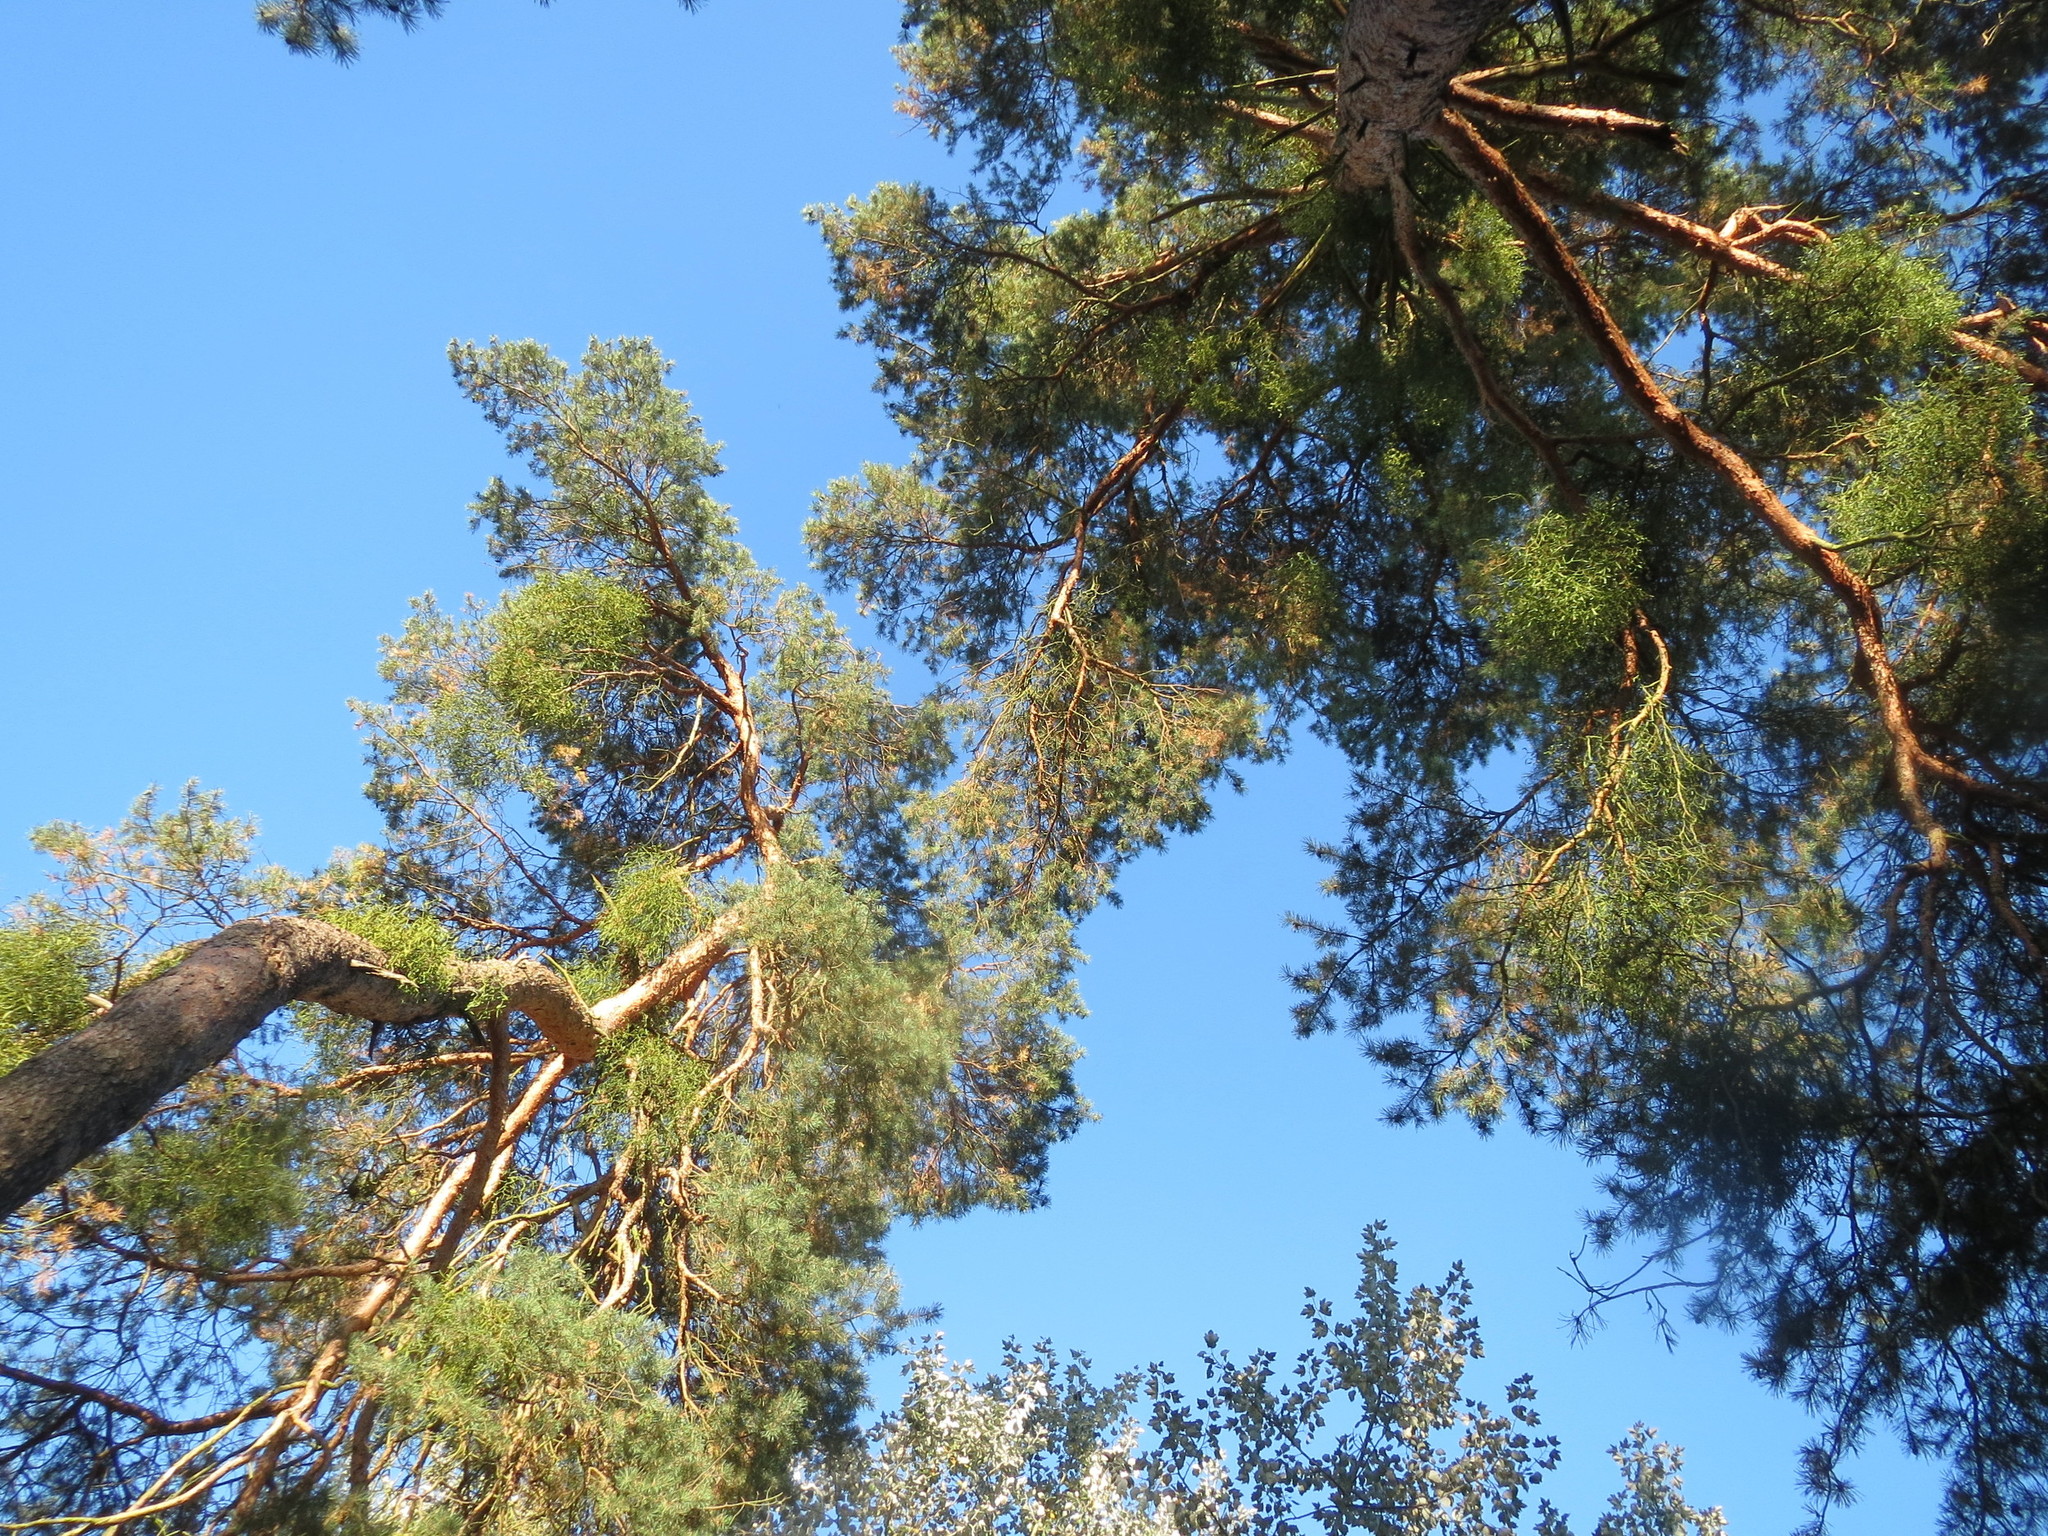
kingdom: Plantae
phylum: Tracheophyta
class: Pinopsida
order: Pinales
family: Pinaceae
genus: Pinus
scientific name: Pinus sylvestris
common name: Scots pine
